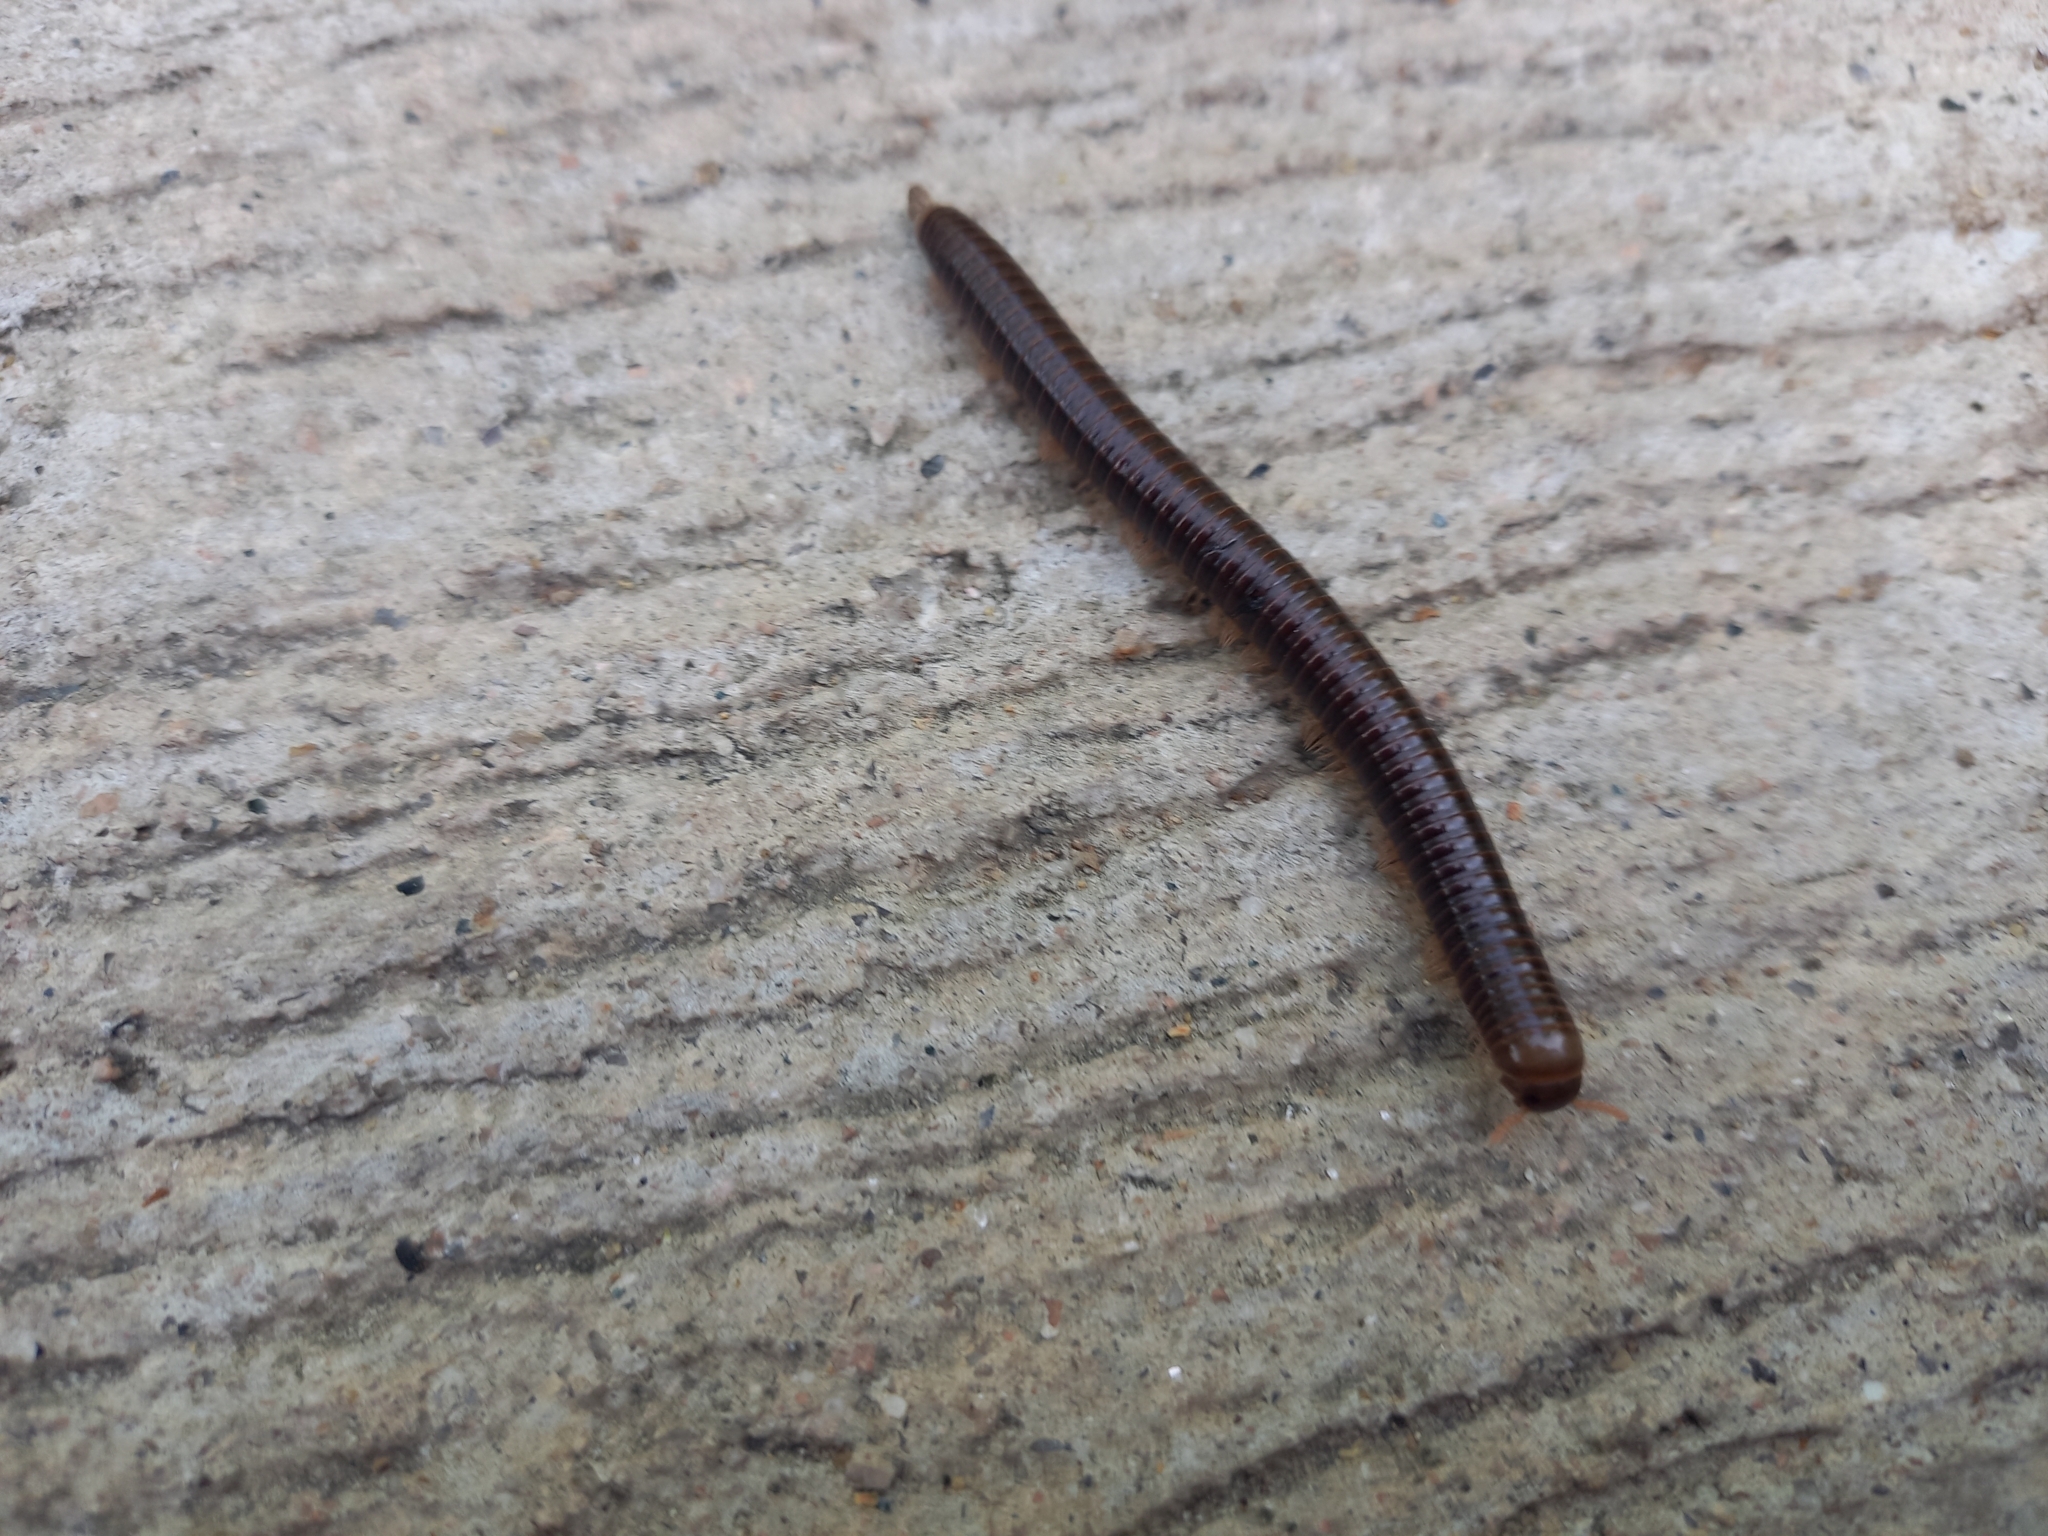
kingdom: Animalia
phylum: Arthropoda
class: Diplopoda
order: Spirobolida
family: Pachybolidae
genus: Trigoniulus
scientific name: Trigoniulus corallinus
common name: Millipede
